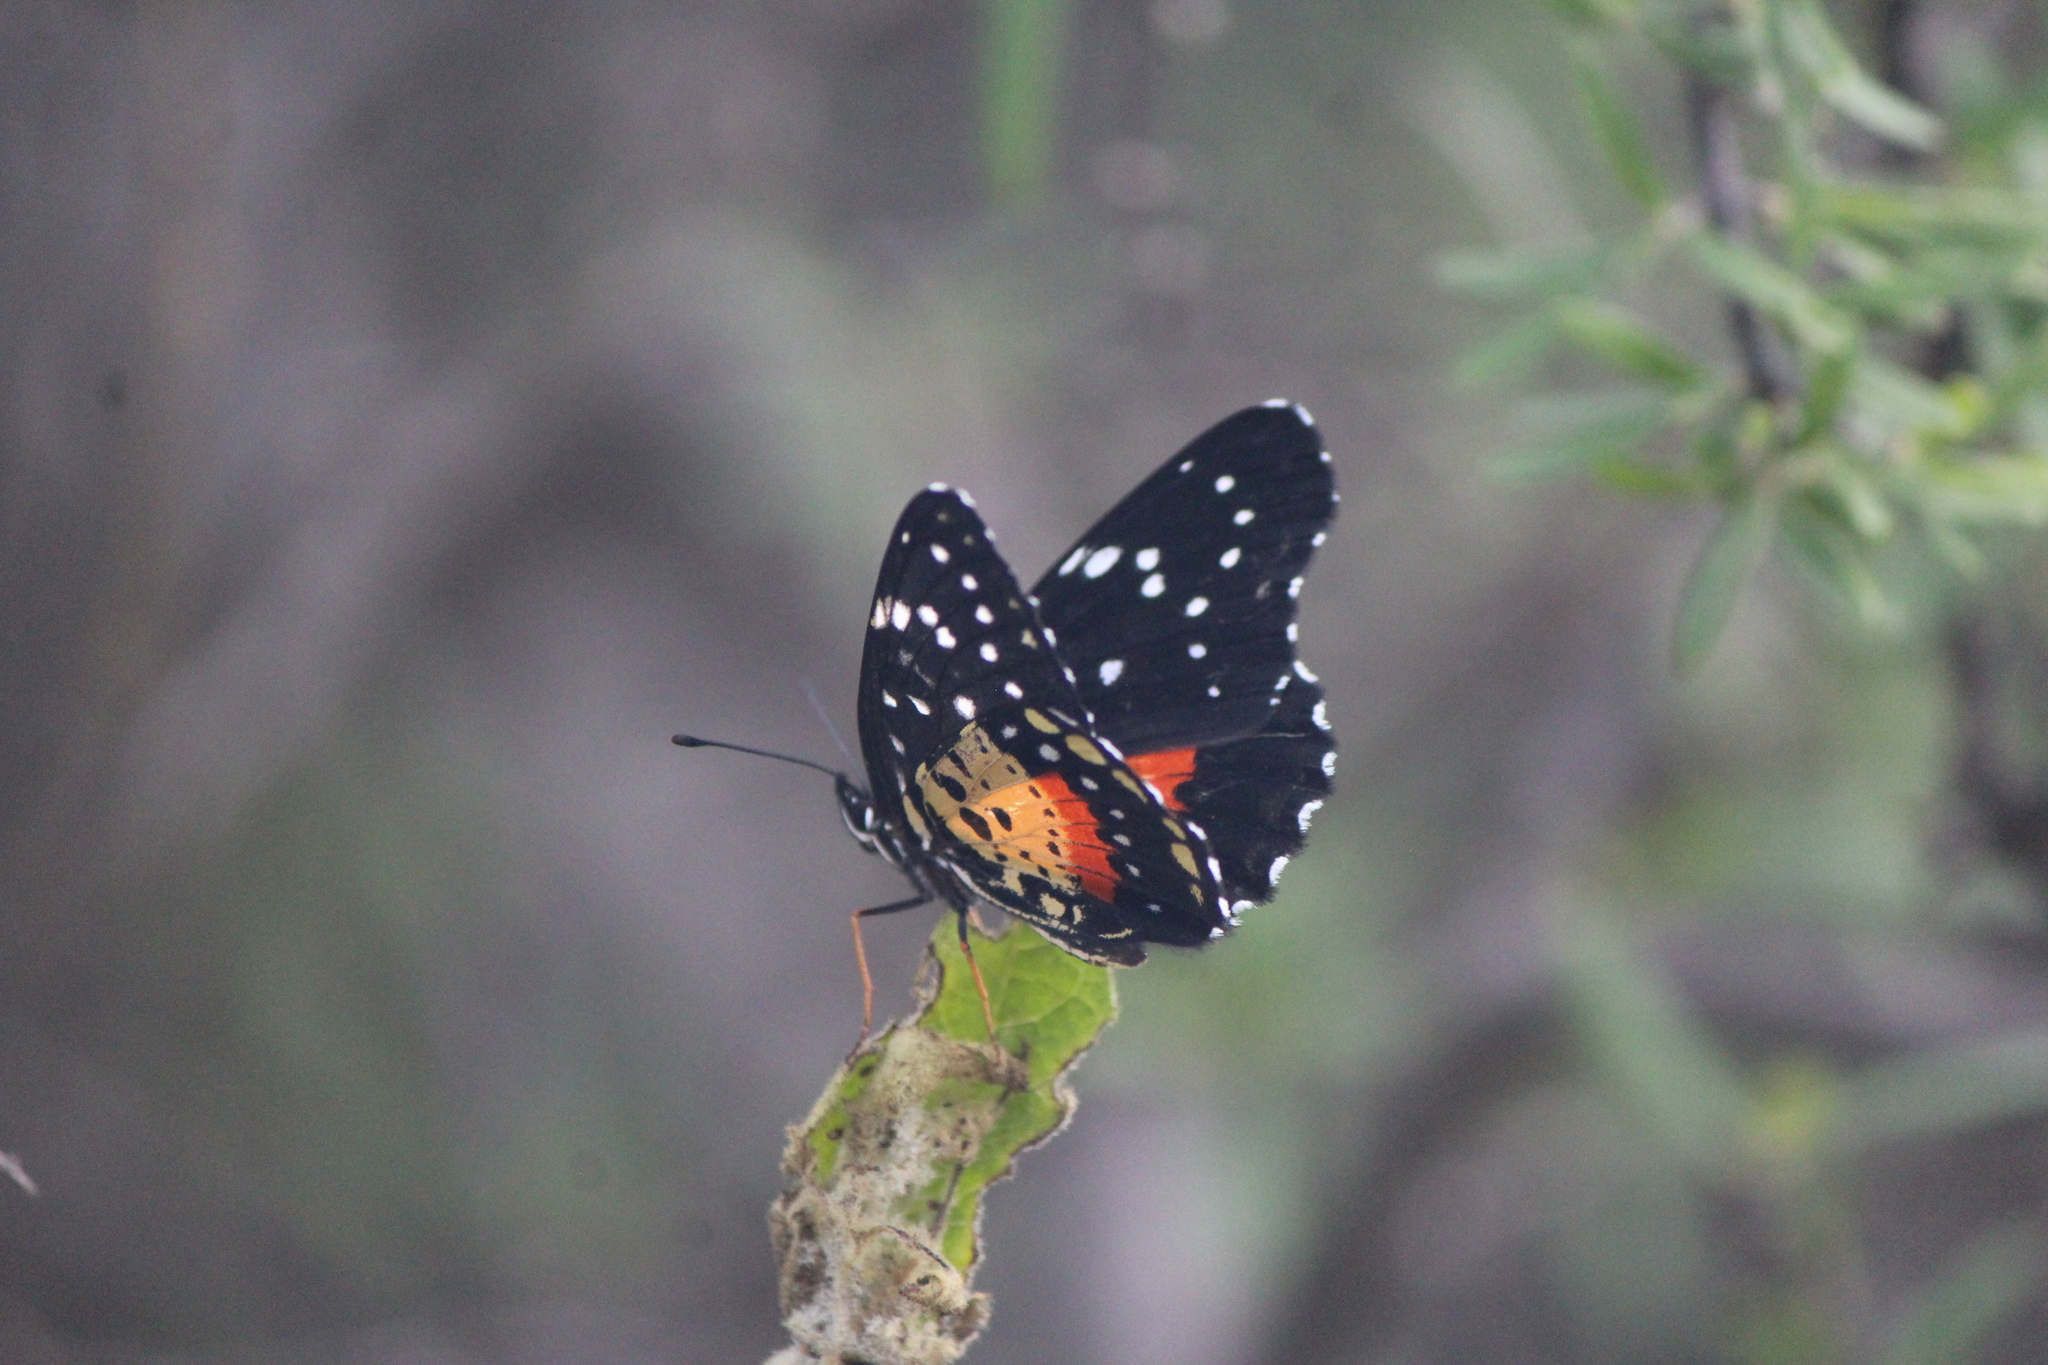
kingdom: Animalia
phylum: Arthropoda
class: Insecta
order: Lepidoptera
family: Nymphalidae
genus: Chlosyne
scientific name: Chlosyne janais
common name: Crimson patch
